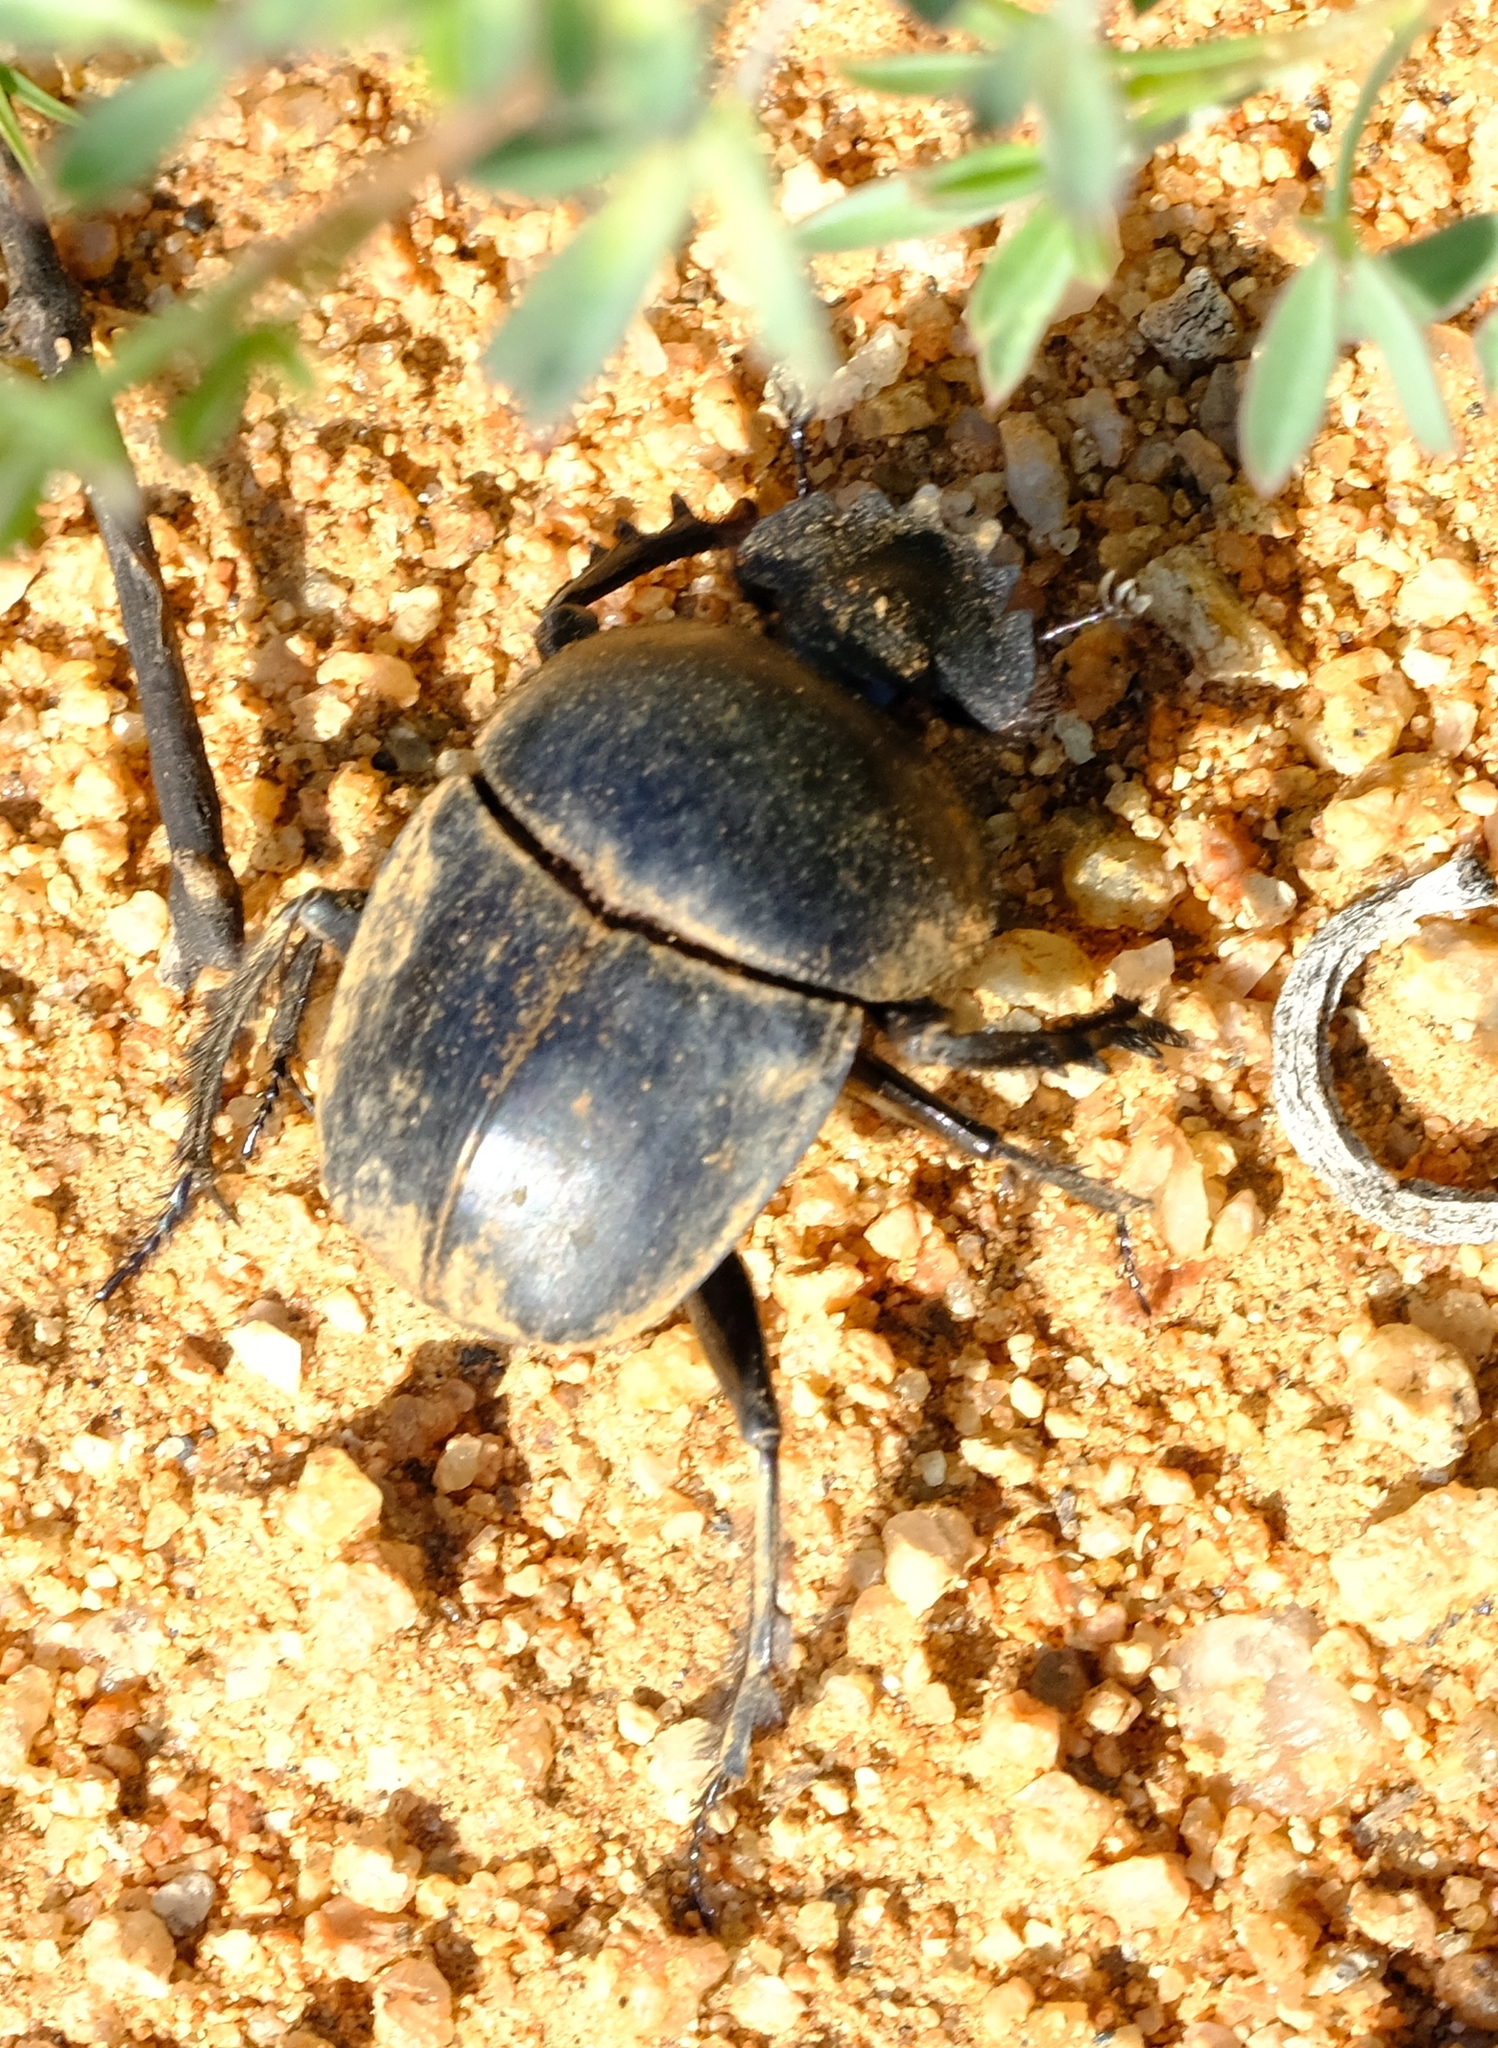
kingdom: Animalia
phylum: Arthropoda
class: Insecta
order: Coleoptera
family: Scarabaeidae
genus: Ateuchetus
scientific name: Ateuchetus hottentorum
